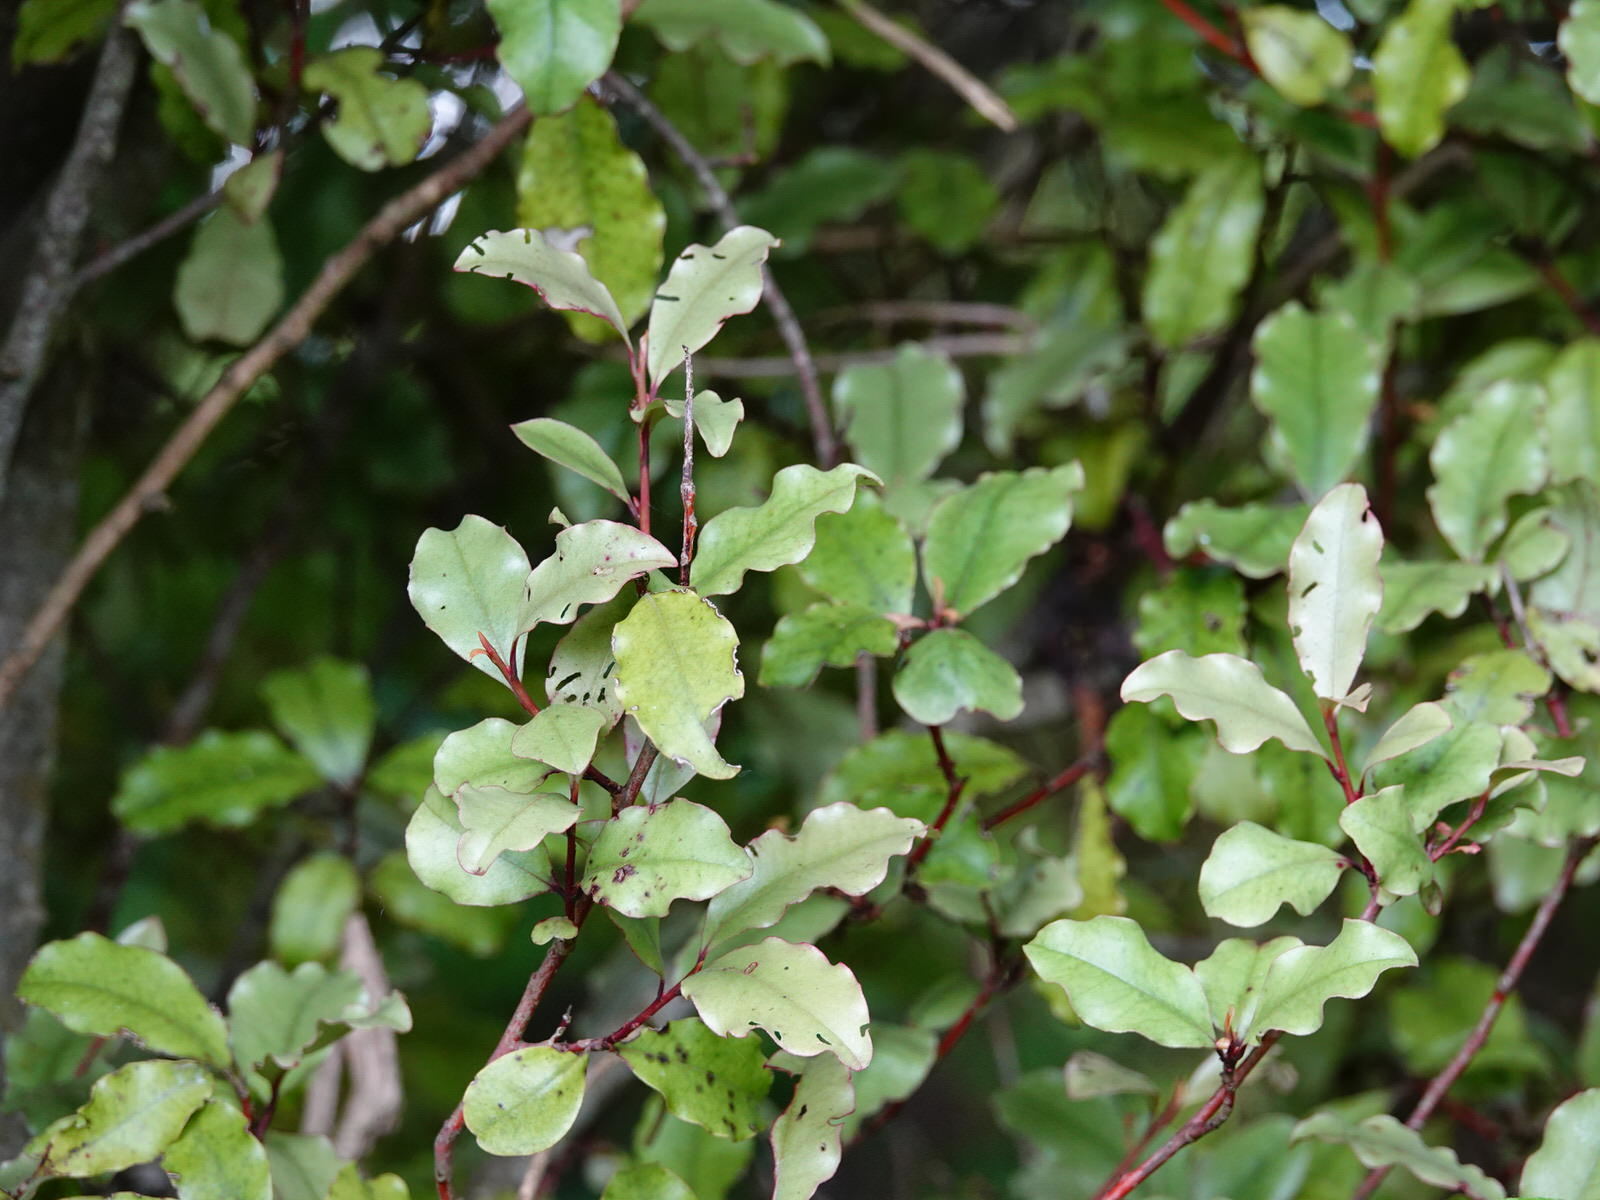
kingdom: Plantae
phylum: Tracheophyta
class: Magnoliopsida
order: Ericales
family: Primulaceae
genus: Myrsine
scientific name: Myrsine australis
